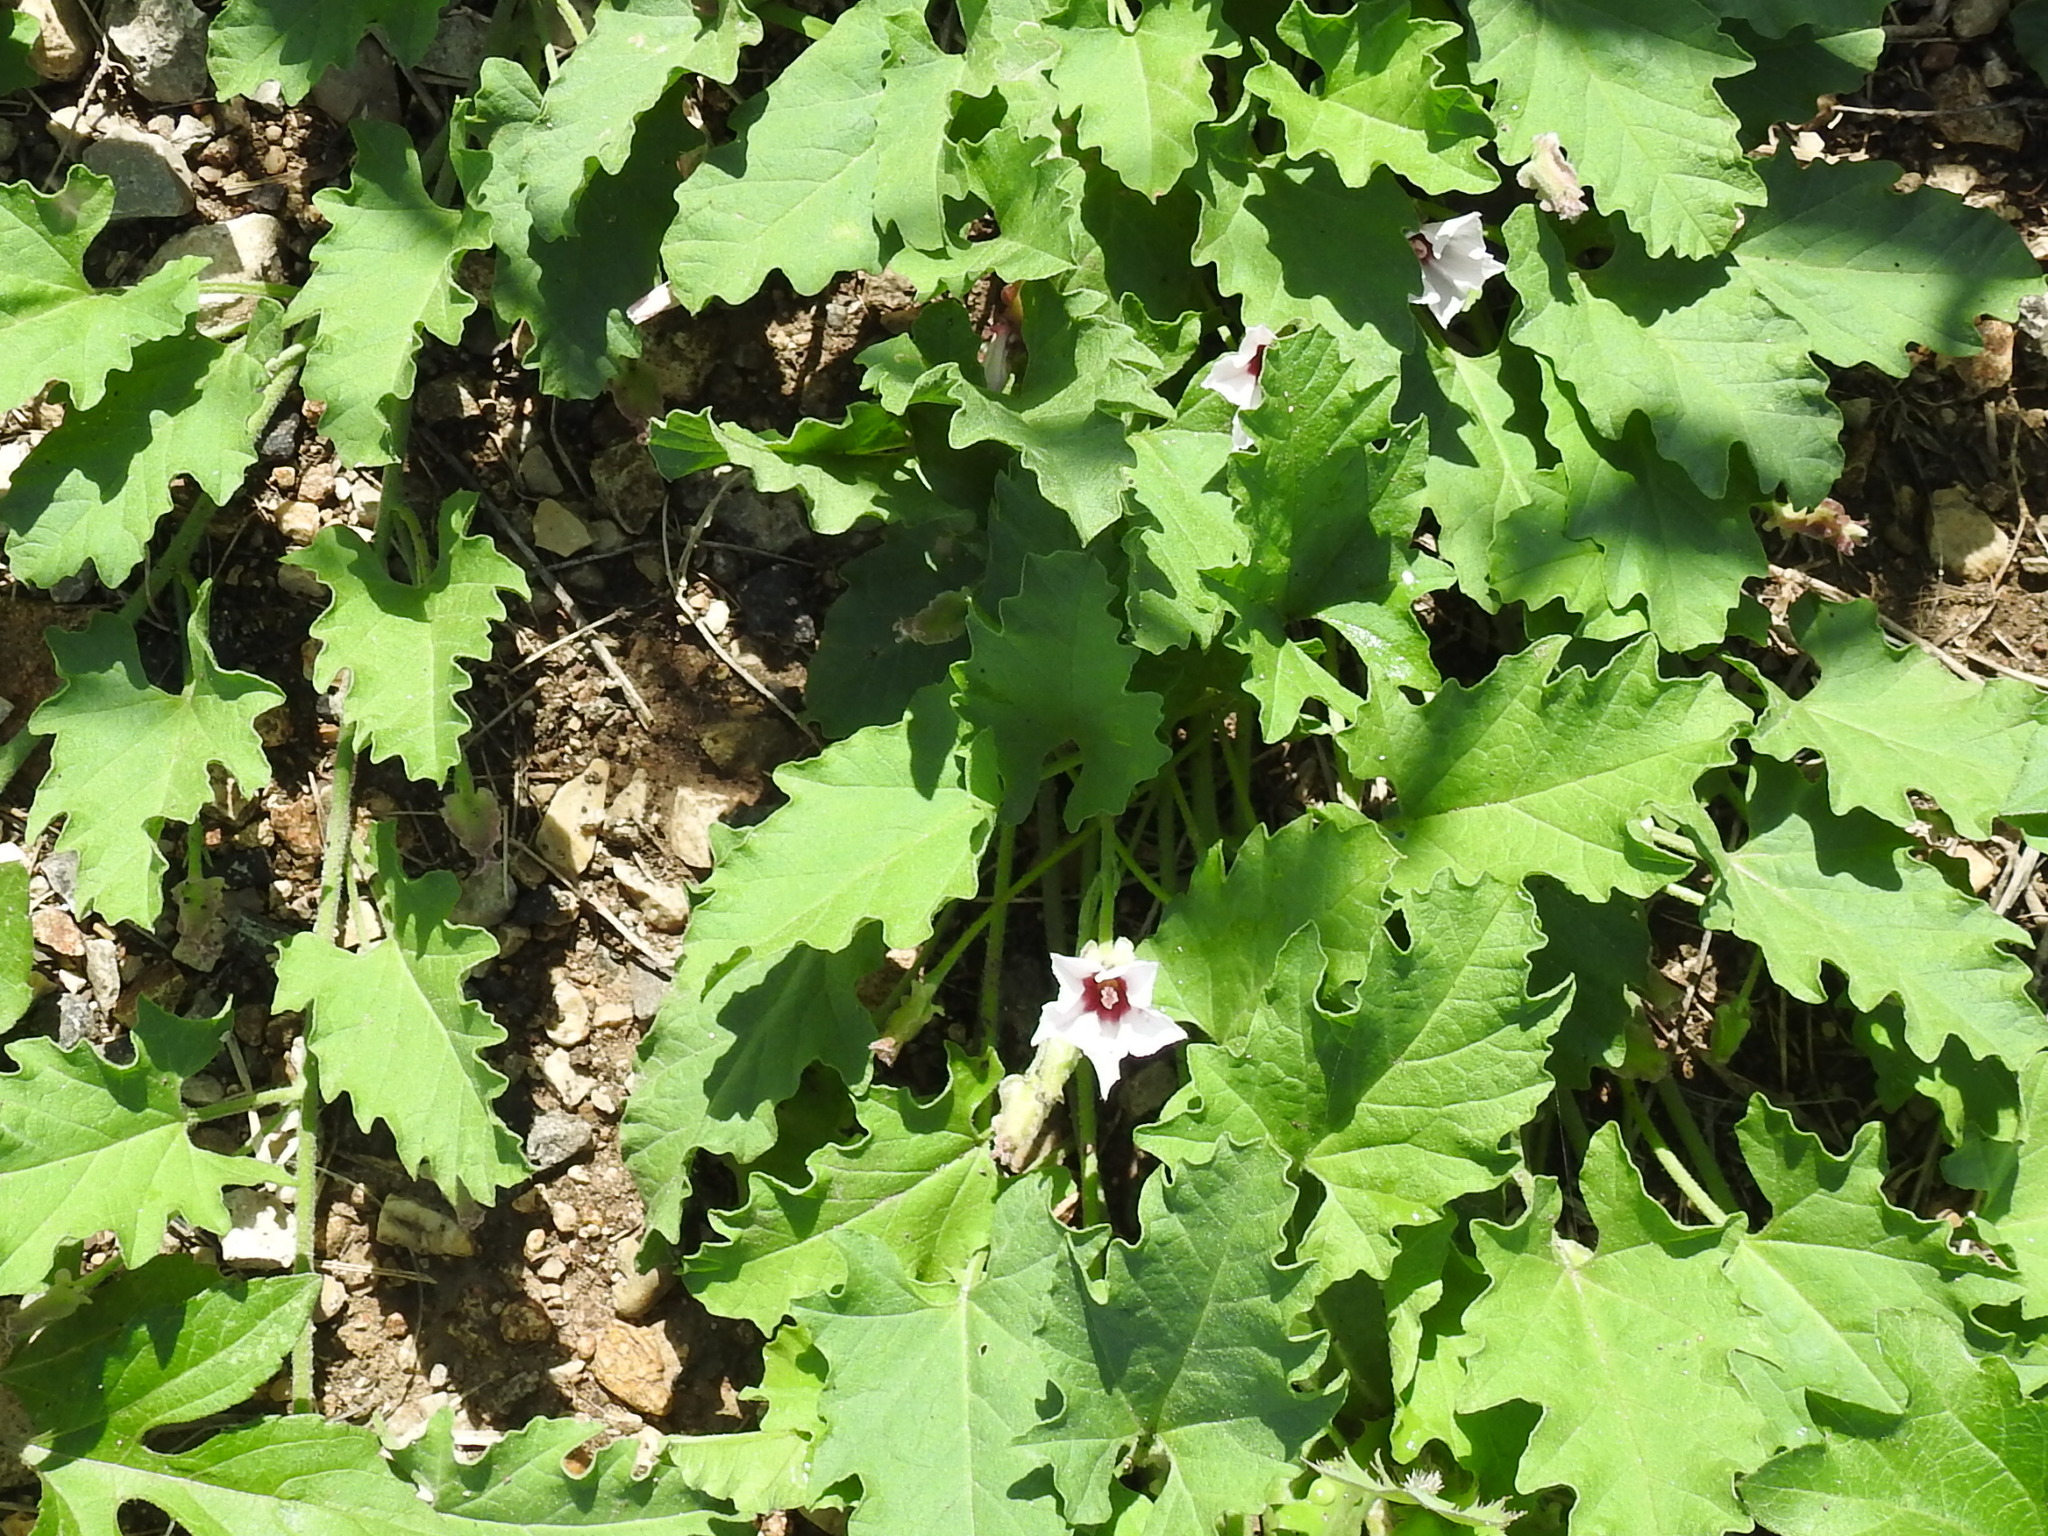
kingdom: Plantae
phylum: Tracheophyta
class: Magnoliopsida
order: Solanales
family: Convolvulaceae
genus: Convolvulus
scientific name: Convolvulus equitans
